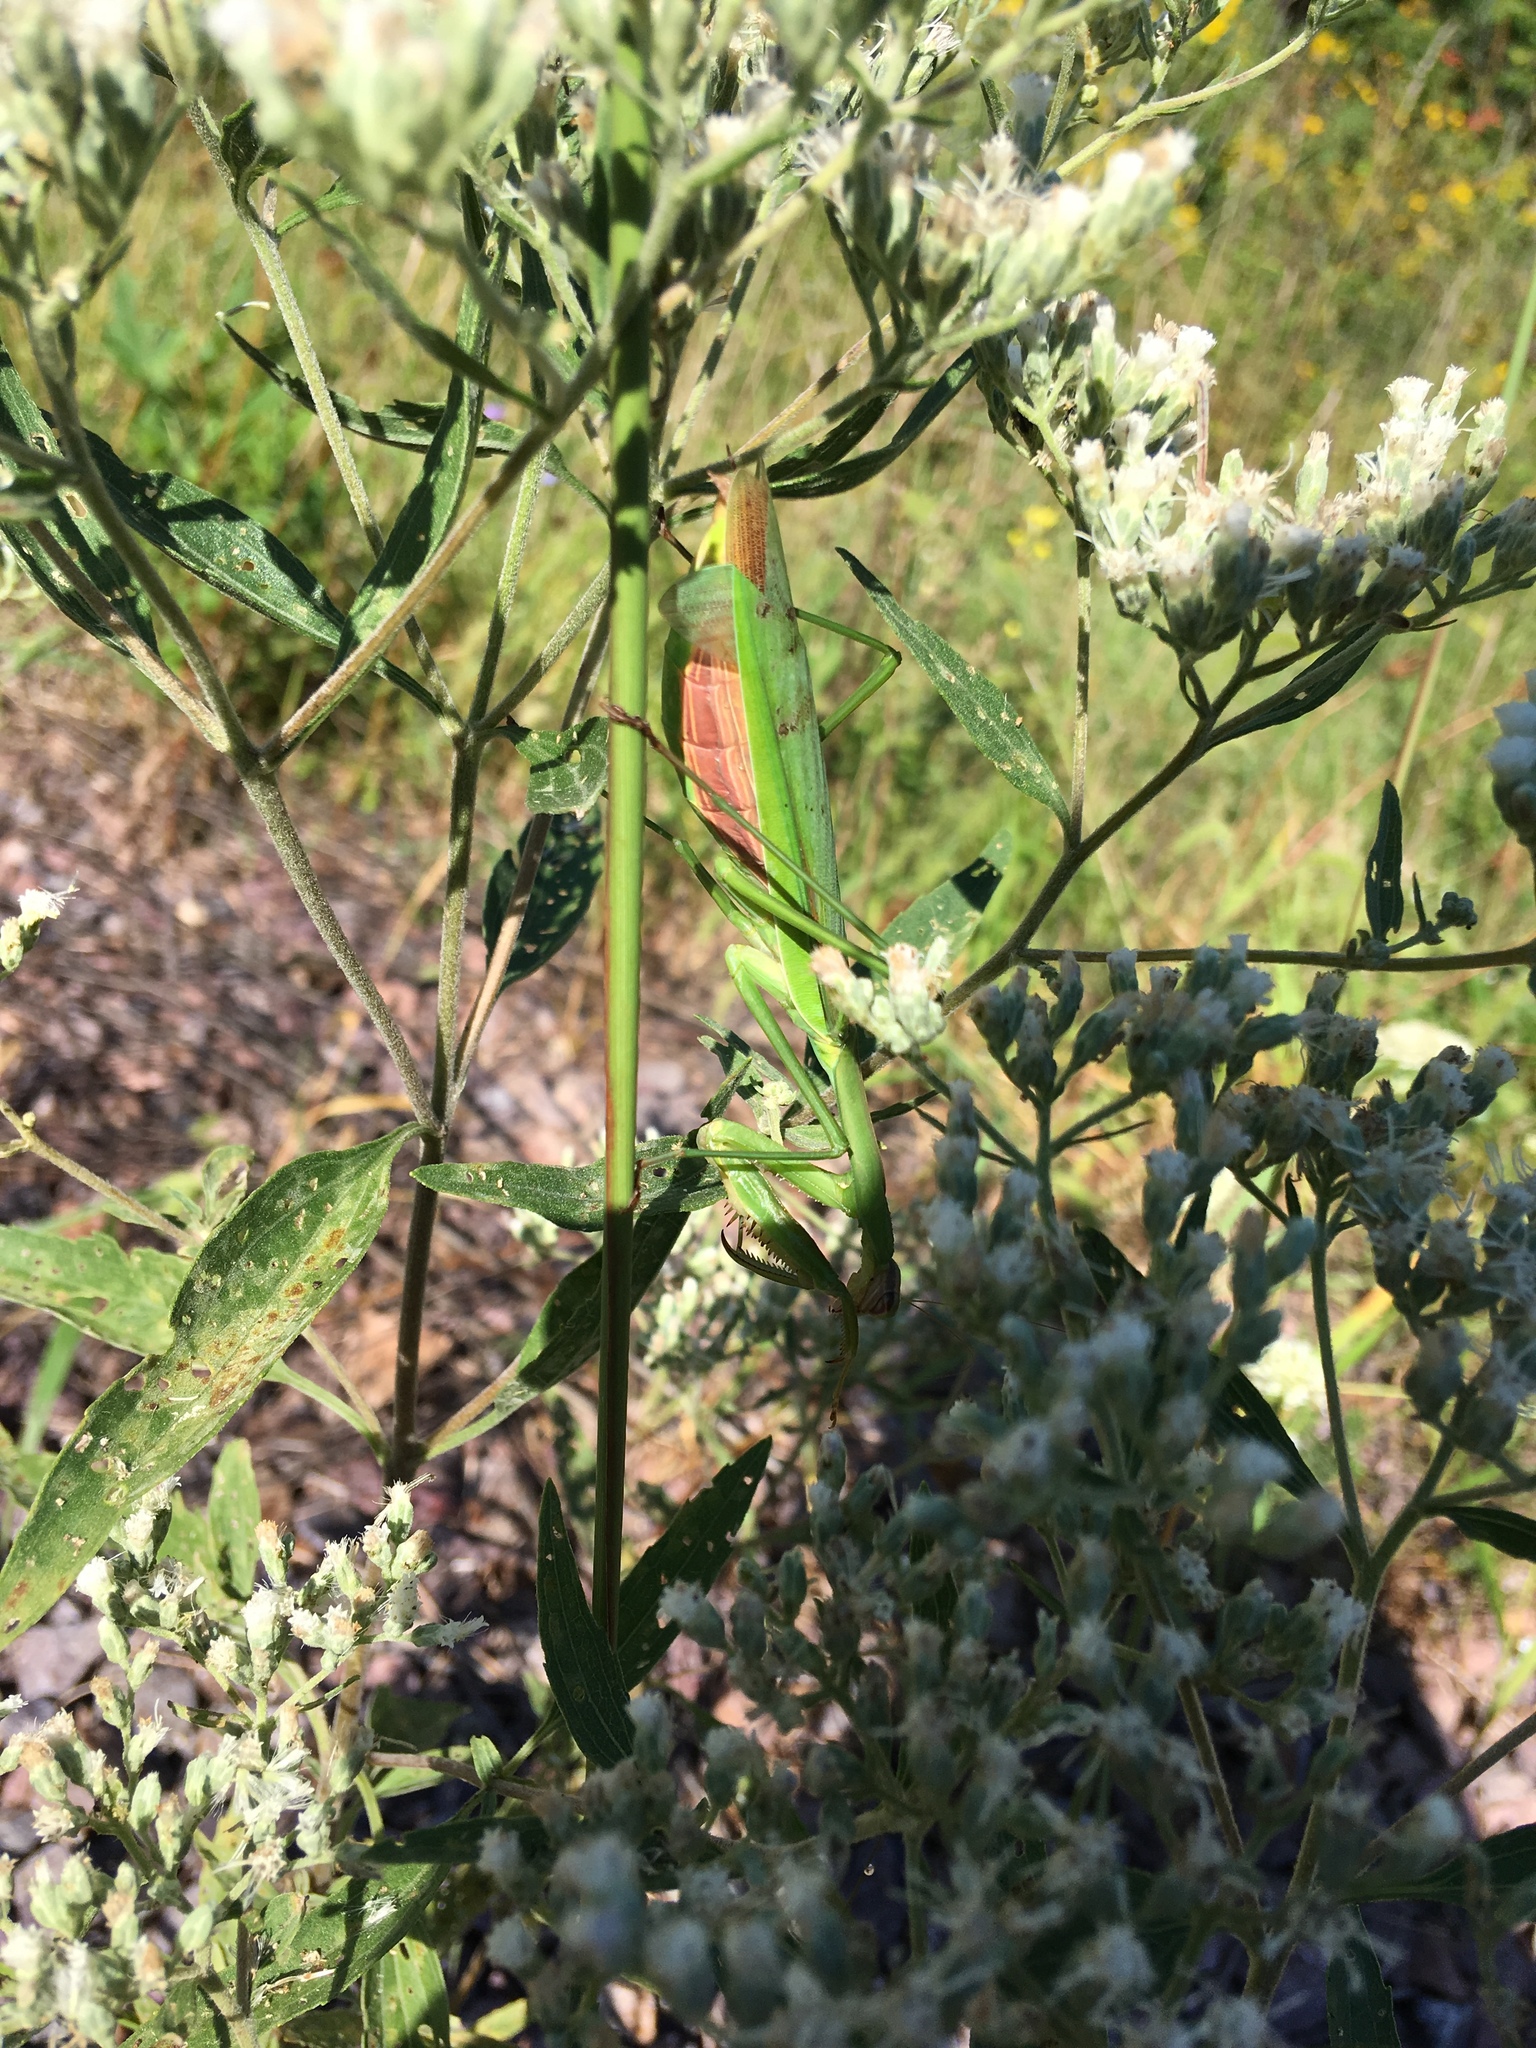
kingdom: Animalia
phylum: Arthropoda
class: Insecta
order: Mantodea
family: Mantidae
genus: Tenodera
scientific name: Tenodera sinensis
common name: Chinese mantis
